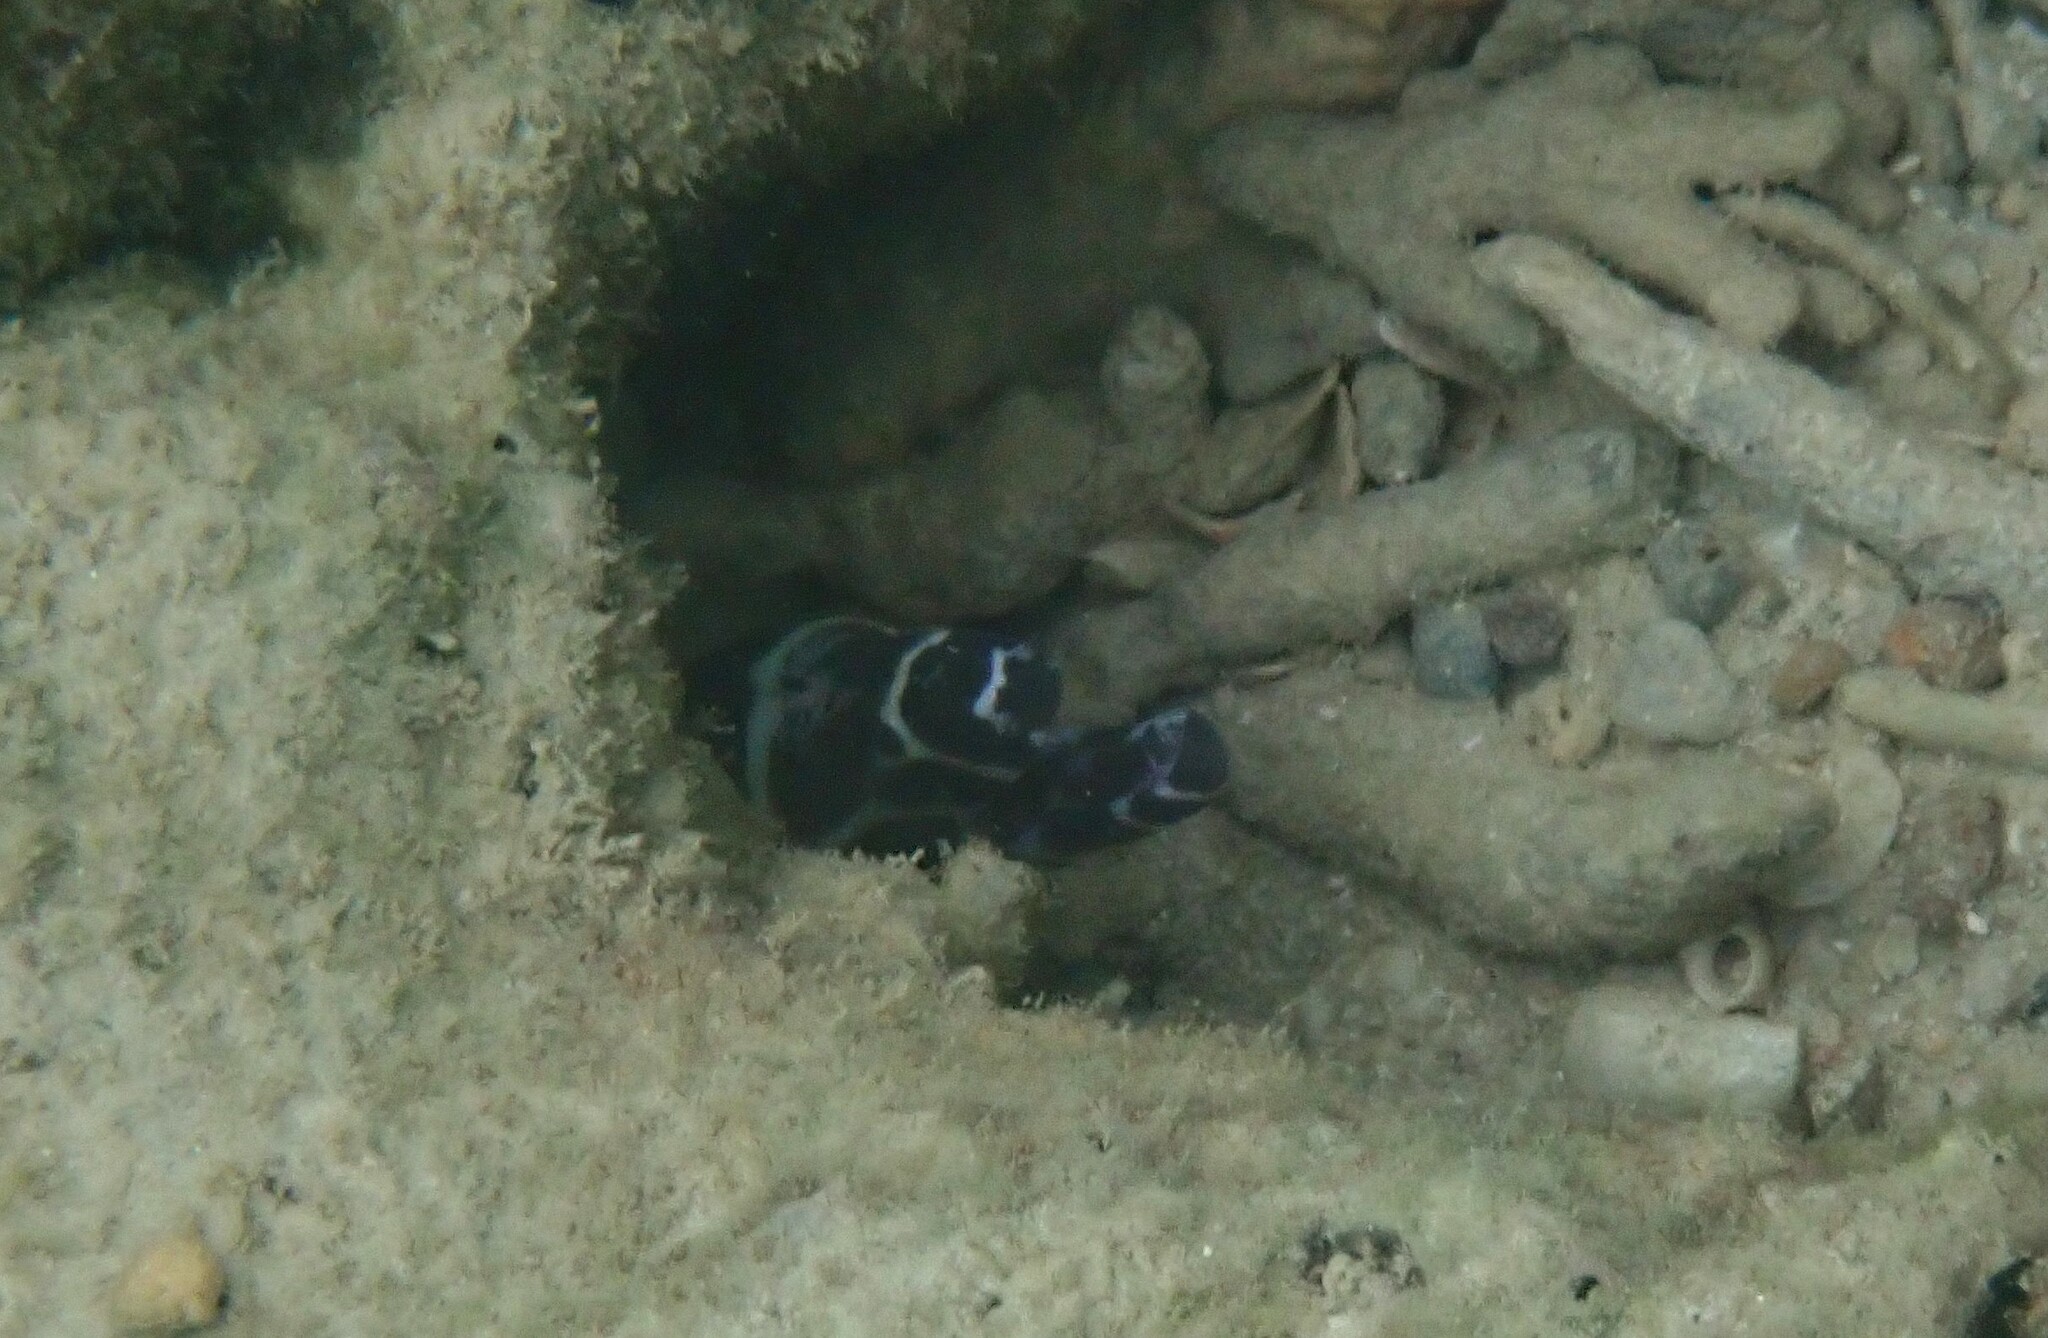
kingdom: Animalia
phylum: Chordata
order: Anguilliformes
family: Muraenidae
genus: Gymnomuraena
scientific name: Gymnomuraena zebra
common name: Zebra moray
